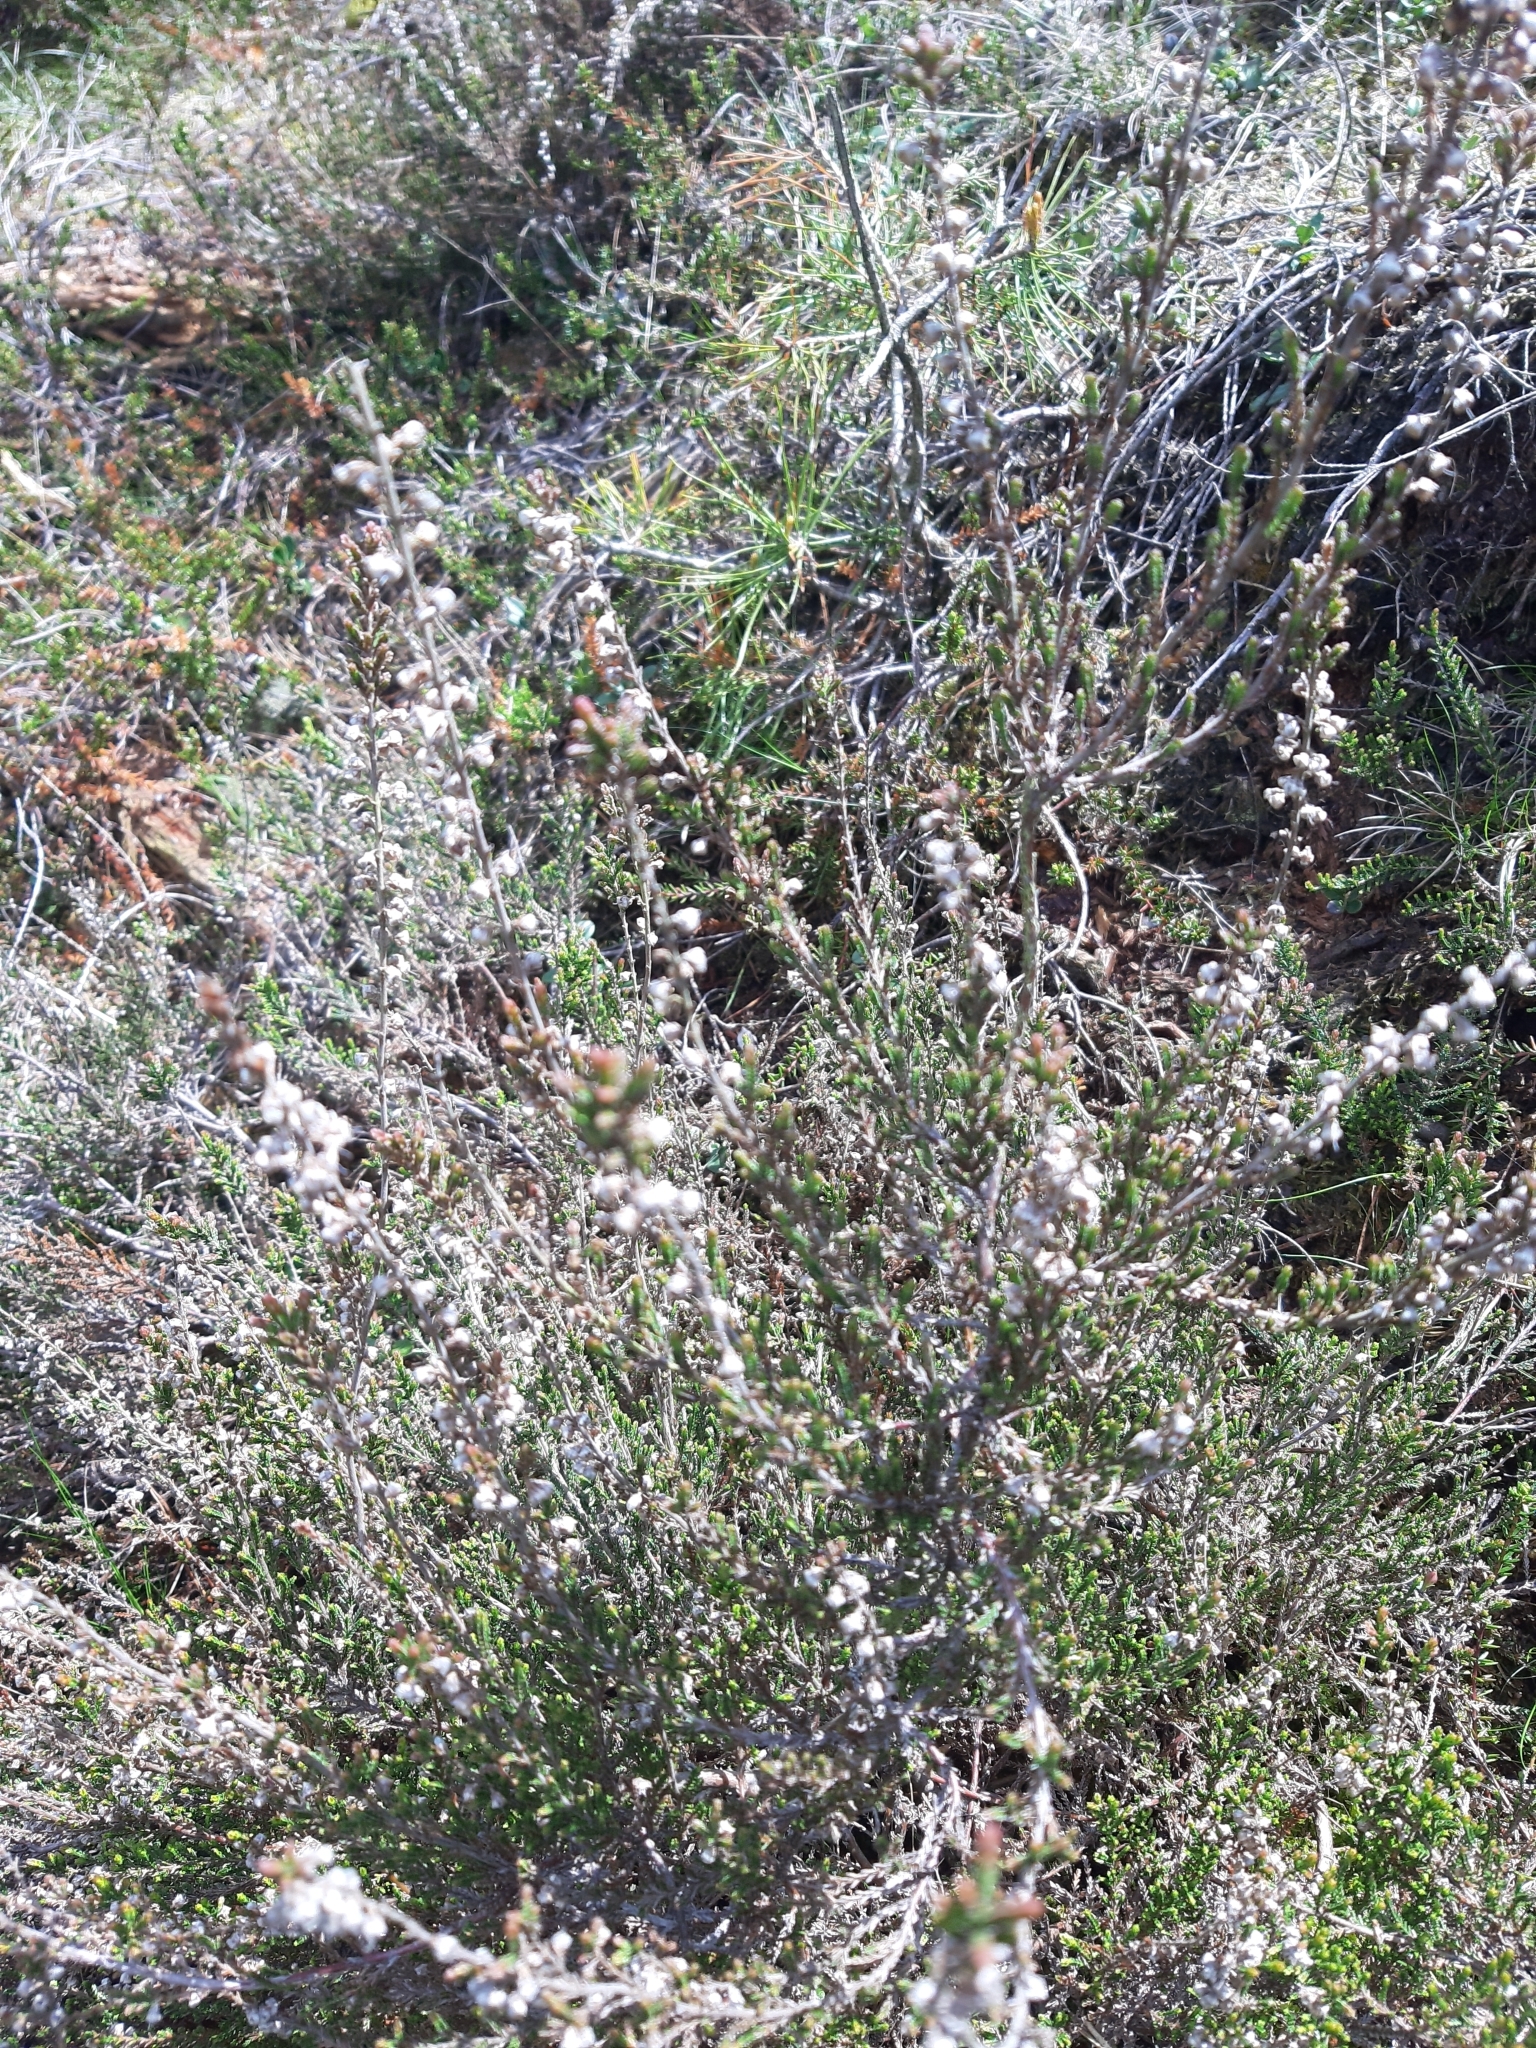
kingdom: Plantae
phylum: Tracheophyta
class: Magnoliopsida
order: Ericales
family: Ericaceae
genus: Calluna
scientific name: Calluna vulgaris
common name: Heather
